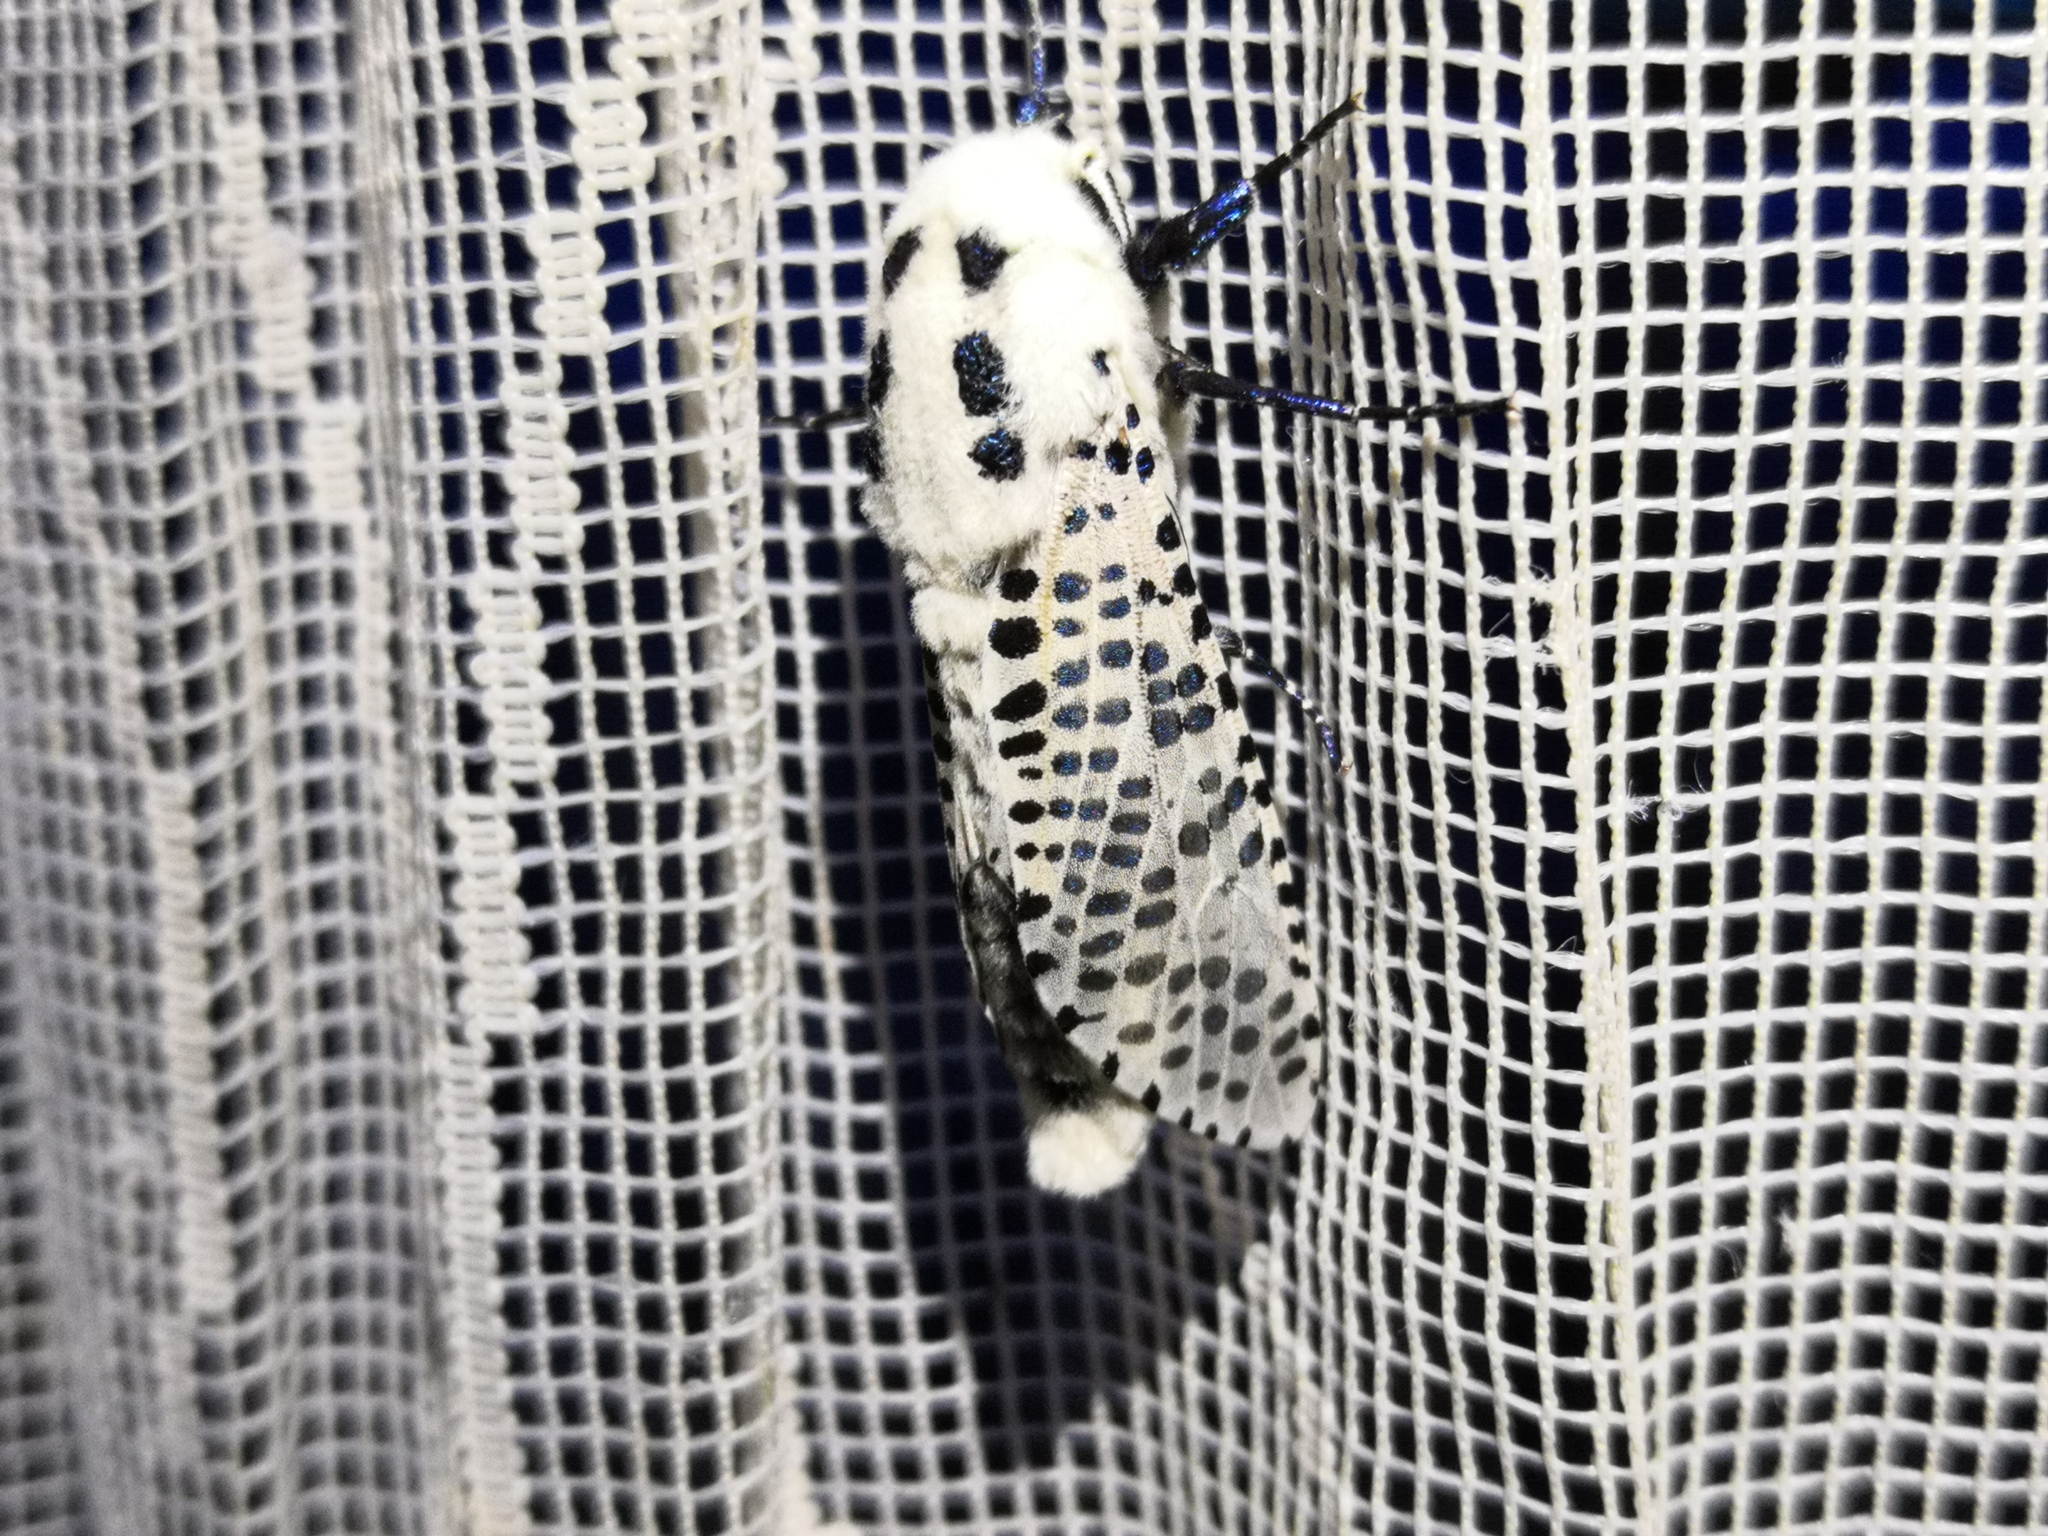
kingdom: Animalia
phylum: Arthropoda
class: Insecta
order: Lepidoptera
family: Cossidae
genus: Zeuzera
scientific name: Zeuzera pyrina
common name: Leopard moth
